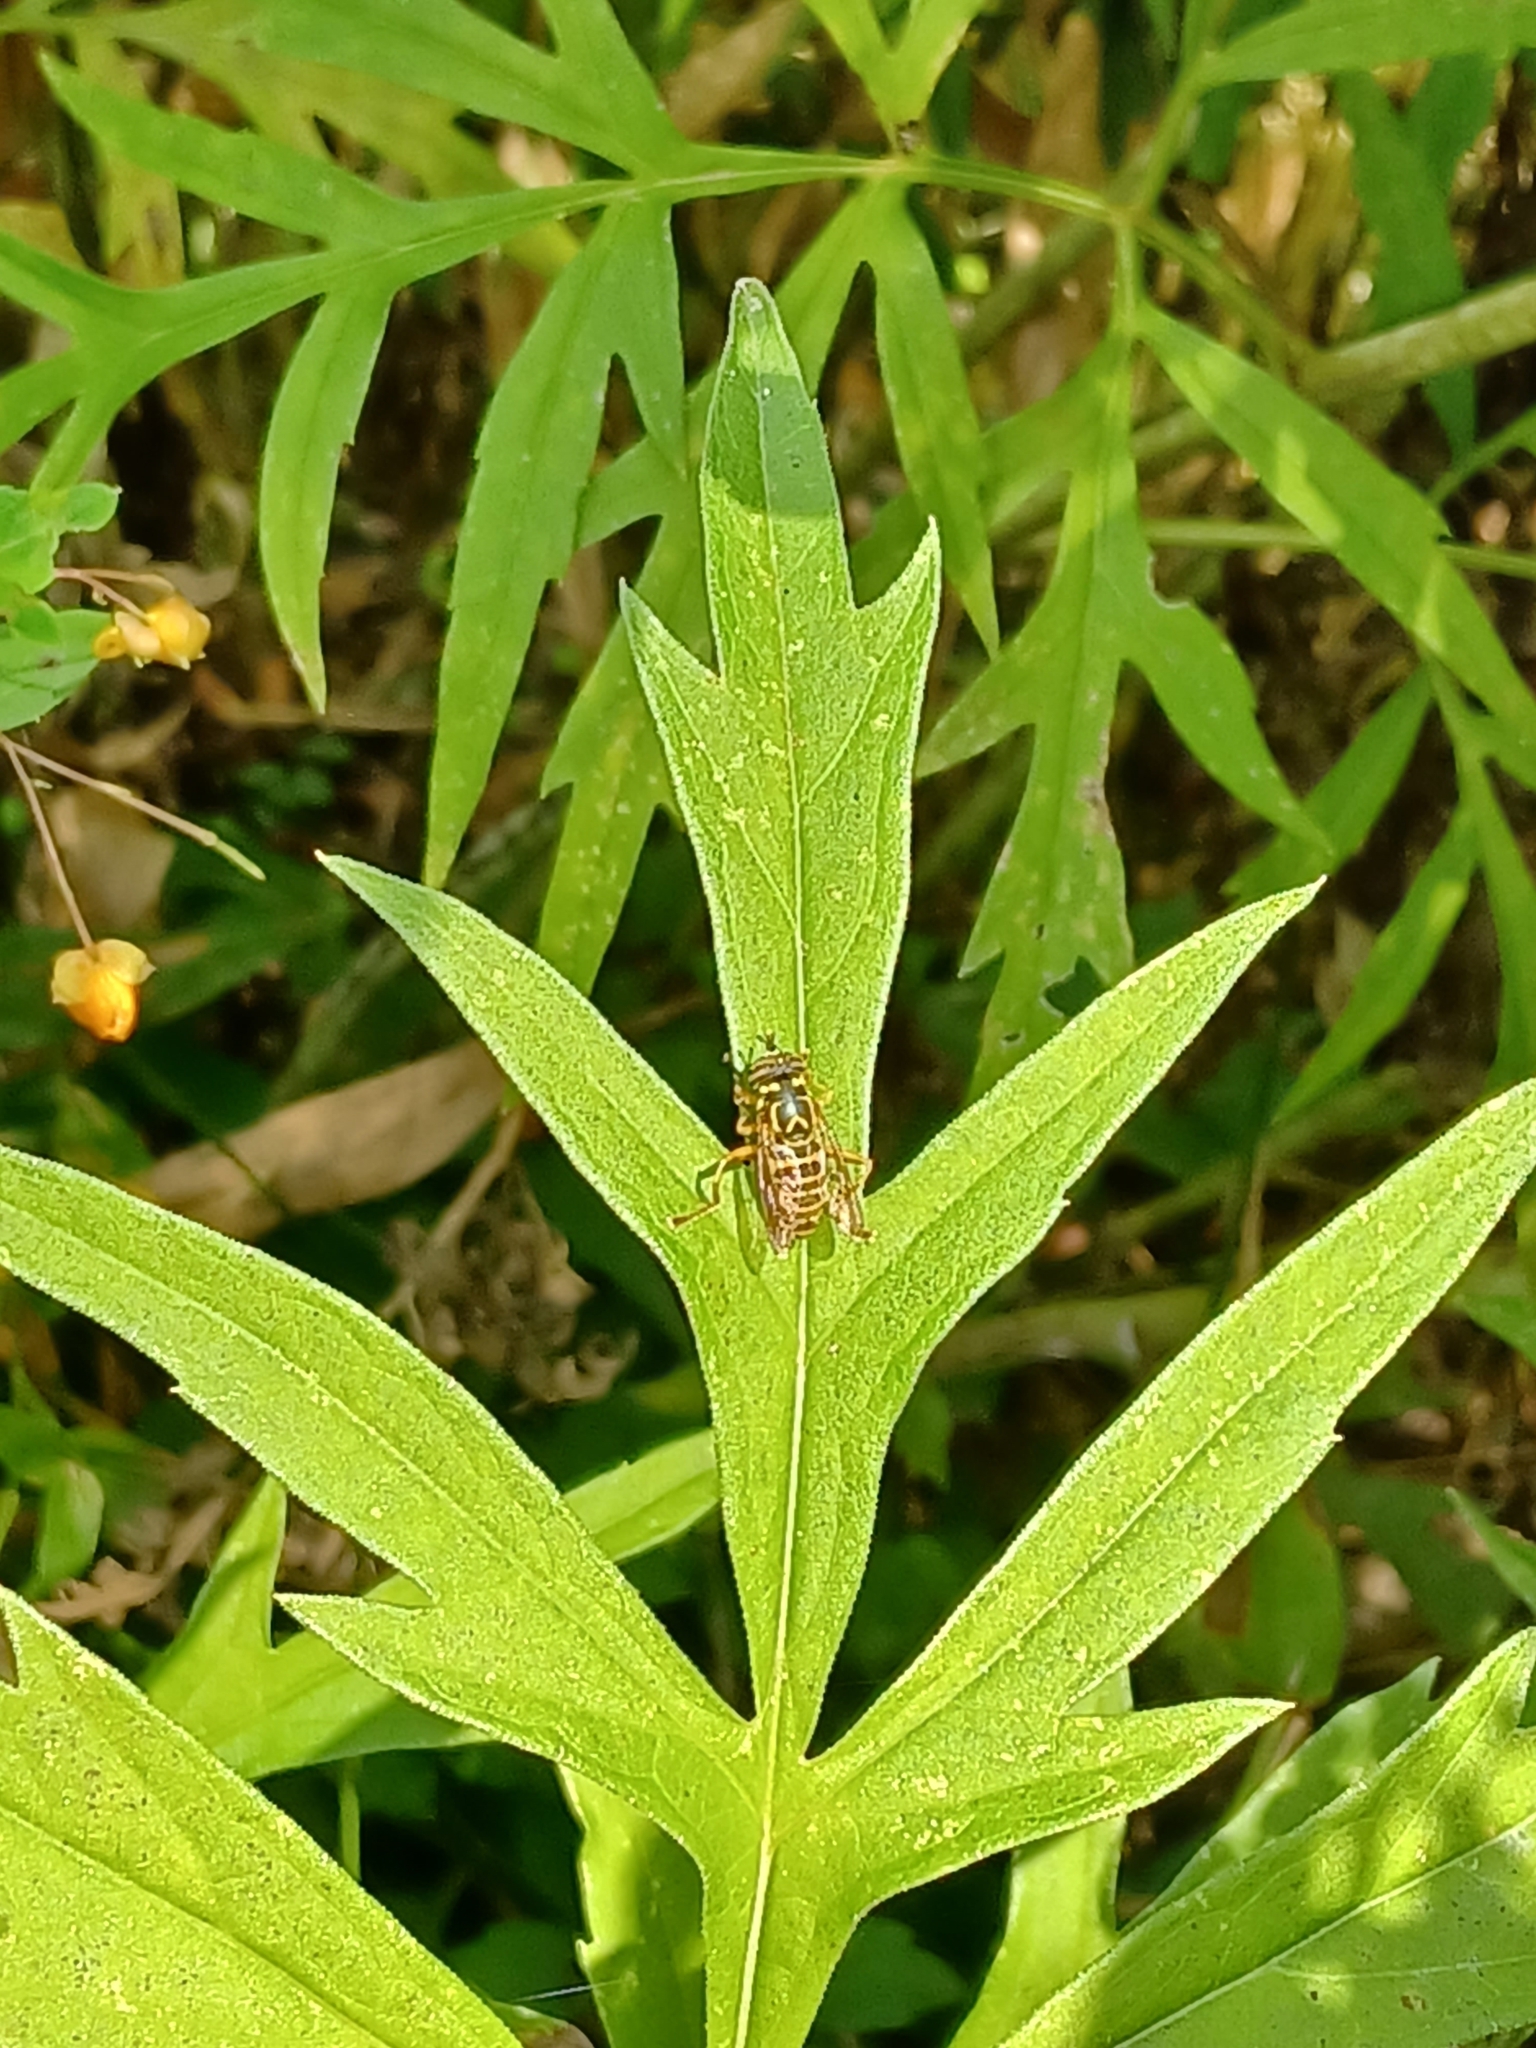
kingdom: Animalia
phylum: Arthropoda
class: Insecta
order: Diptera
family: Syrphidae
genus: Spilomyia
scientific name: Spilomyia longicornis
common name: Eastern hornet fly
